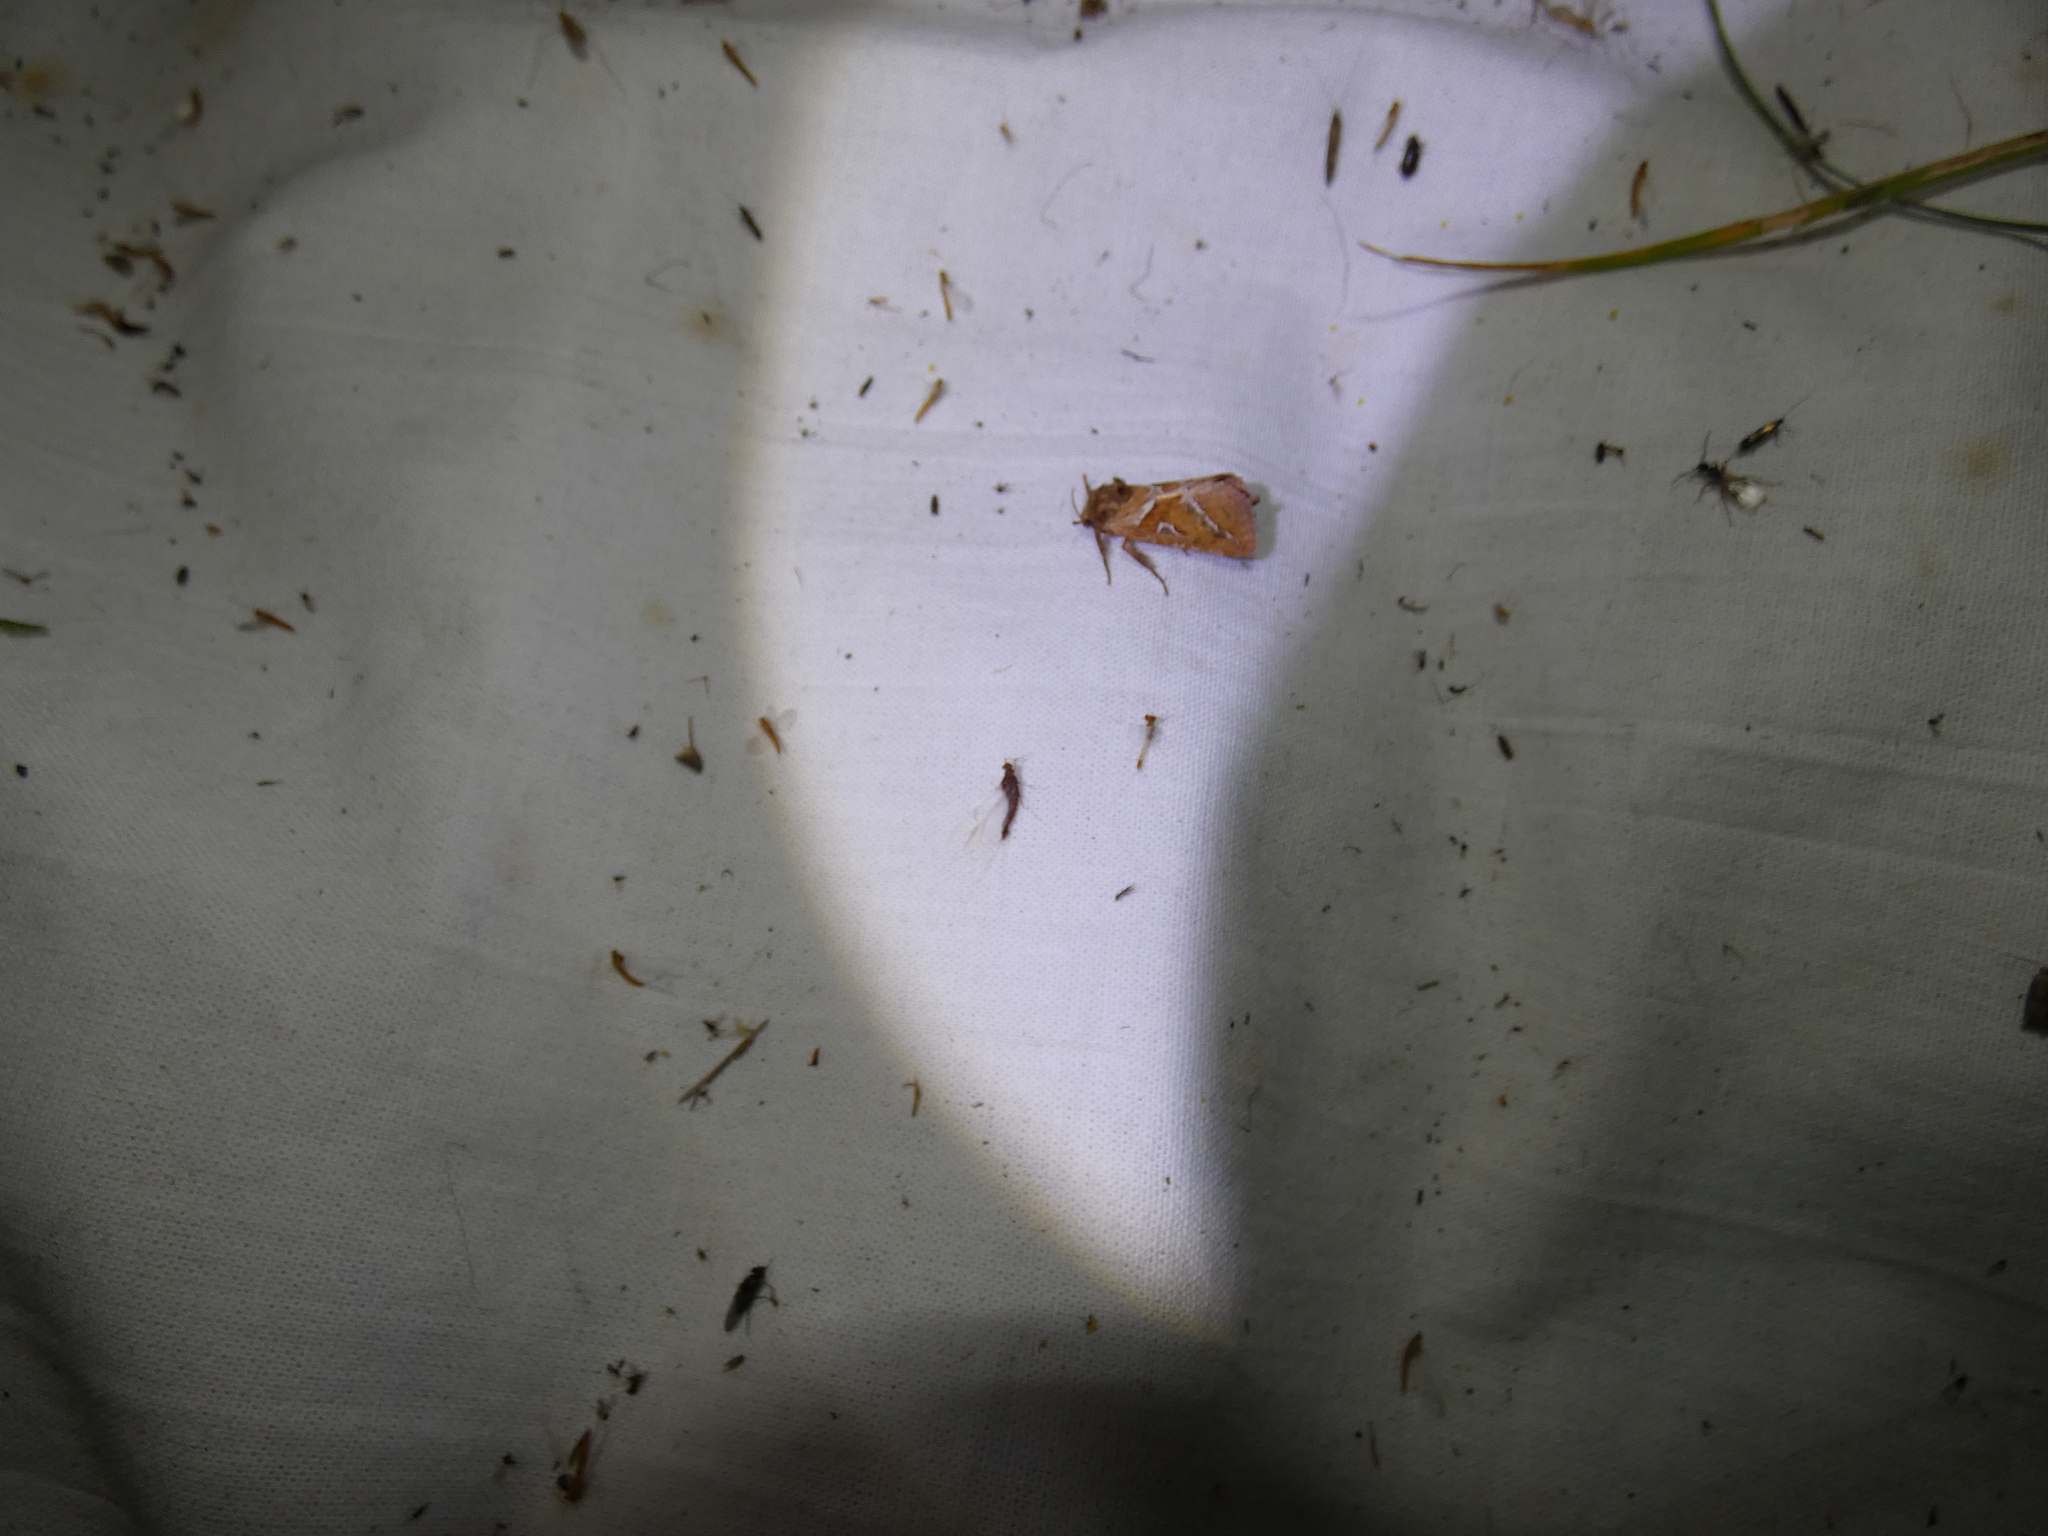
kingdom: Animalia
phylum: Arthropoda
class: Insecta
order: Lepidoptera
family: Hepialidae
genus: Triodia
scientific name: Triodia sylvina
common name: Orange swift
